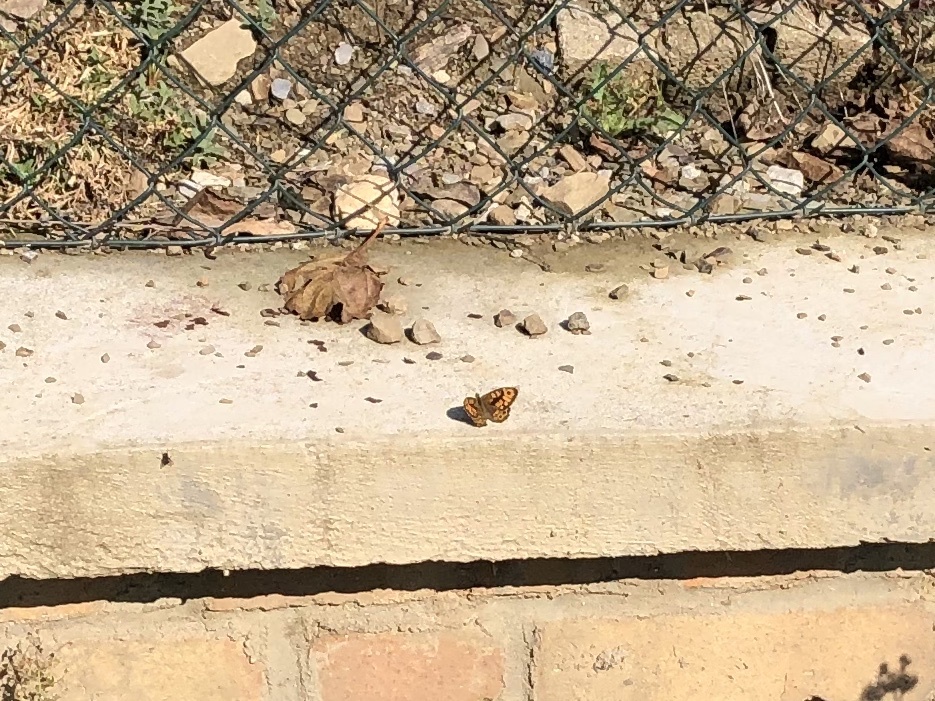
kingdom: Animalia
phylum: Arthropoda
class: Insecta
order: Lepidoptera
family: Nymphalidae
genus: Pararge
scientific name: Pararge Lasiommata megera
